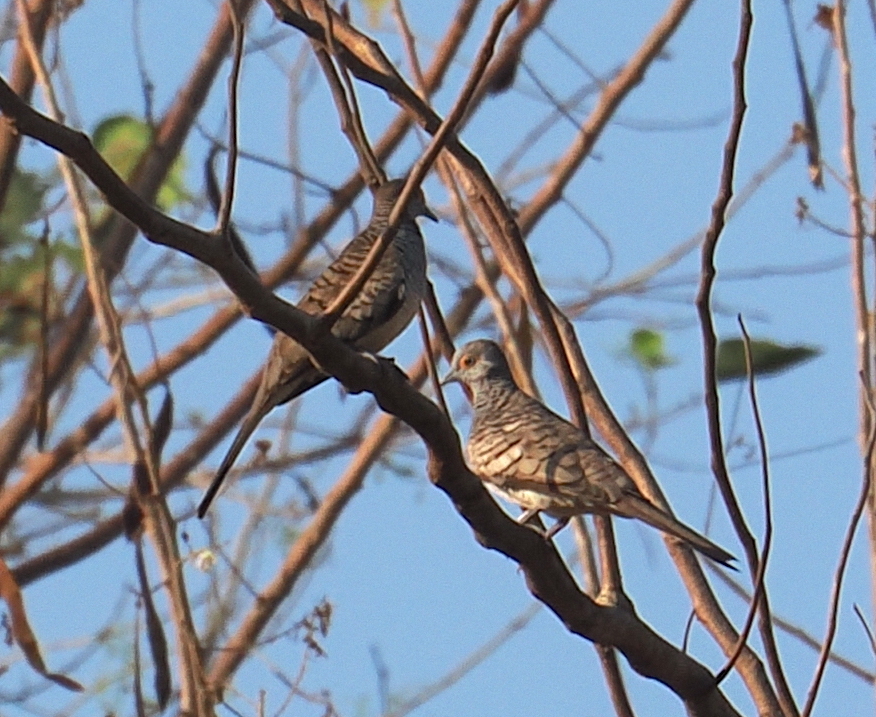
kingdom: Animalia
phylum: Chordata
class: Aves
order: Columbiformes
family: Columbidae
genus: Geopelia
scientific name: Geopelia maugeus
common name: Barred dove
